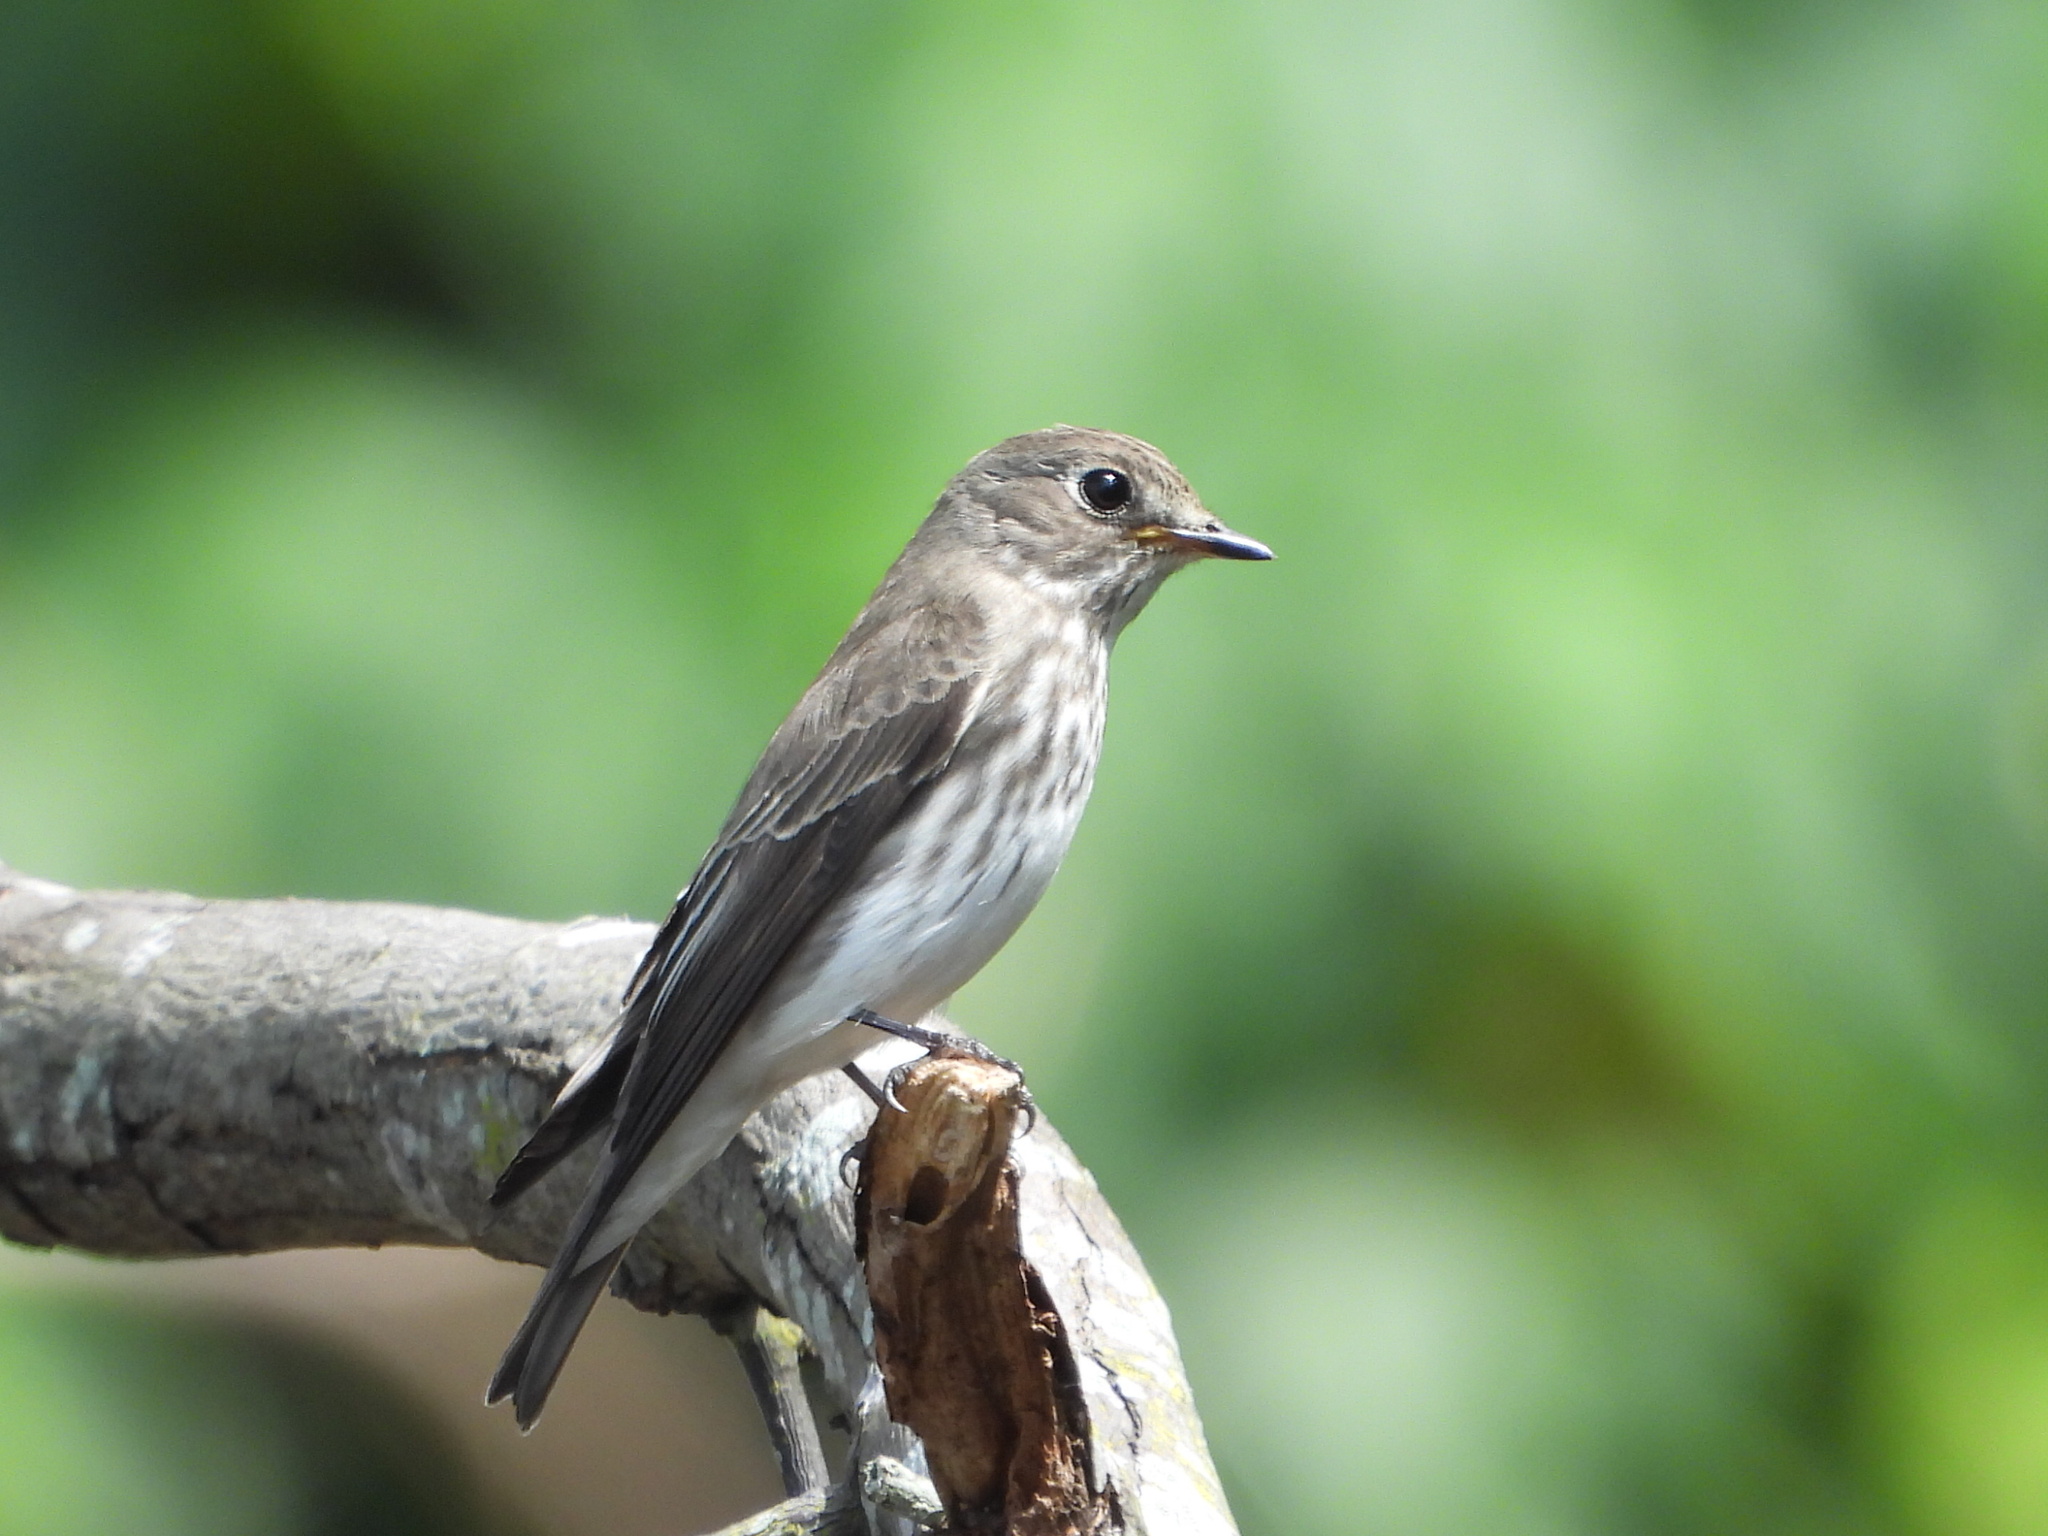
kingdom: Animalia
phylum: Chordata
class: Aves
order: Passeriformes
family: Muscicapidae
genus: Muscicapa
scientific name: Muscicapa griseisticta
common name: Gray-streaked flycatcher
